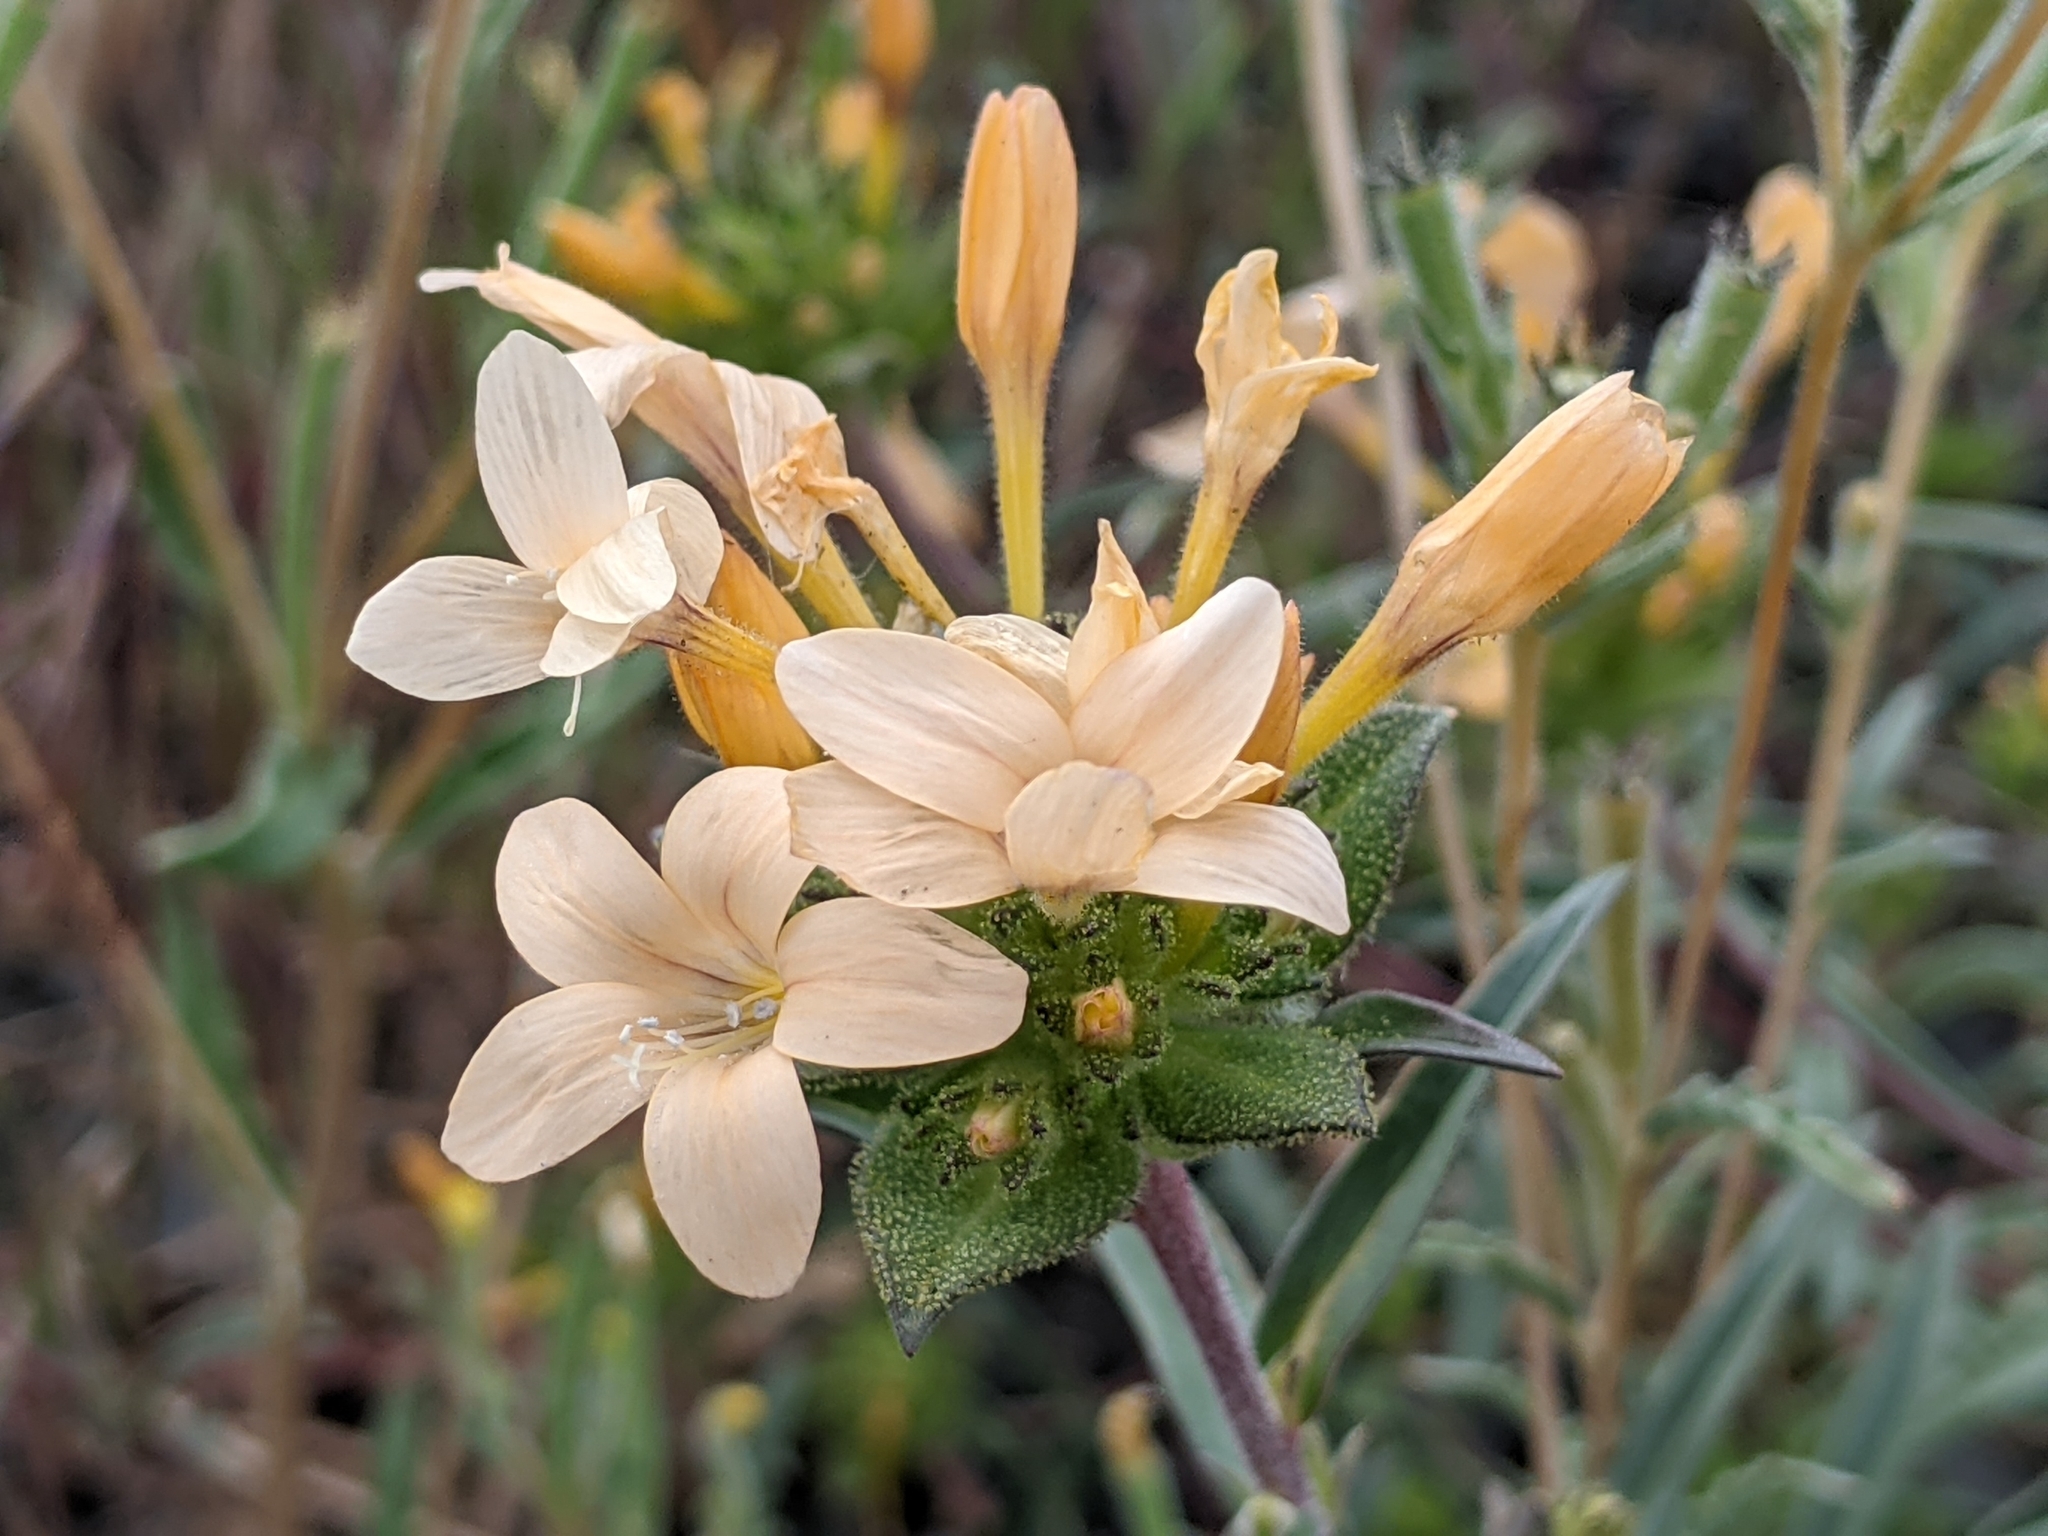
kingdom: Plantae
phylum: Tracheophyta
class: Magnoliopsida
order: Ericales
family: Polemoniaceae
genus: Collomia
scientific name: Collomia grandiflora
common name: California strawflower
